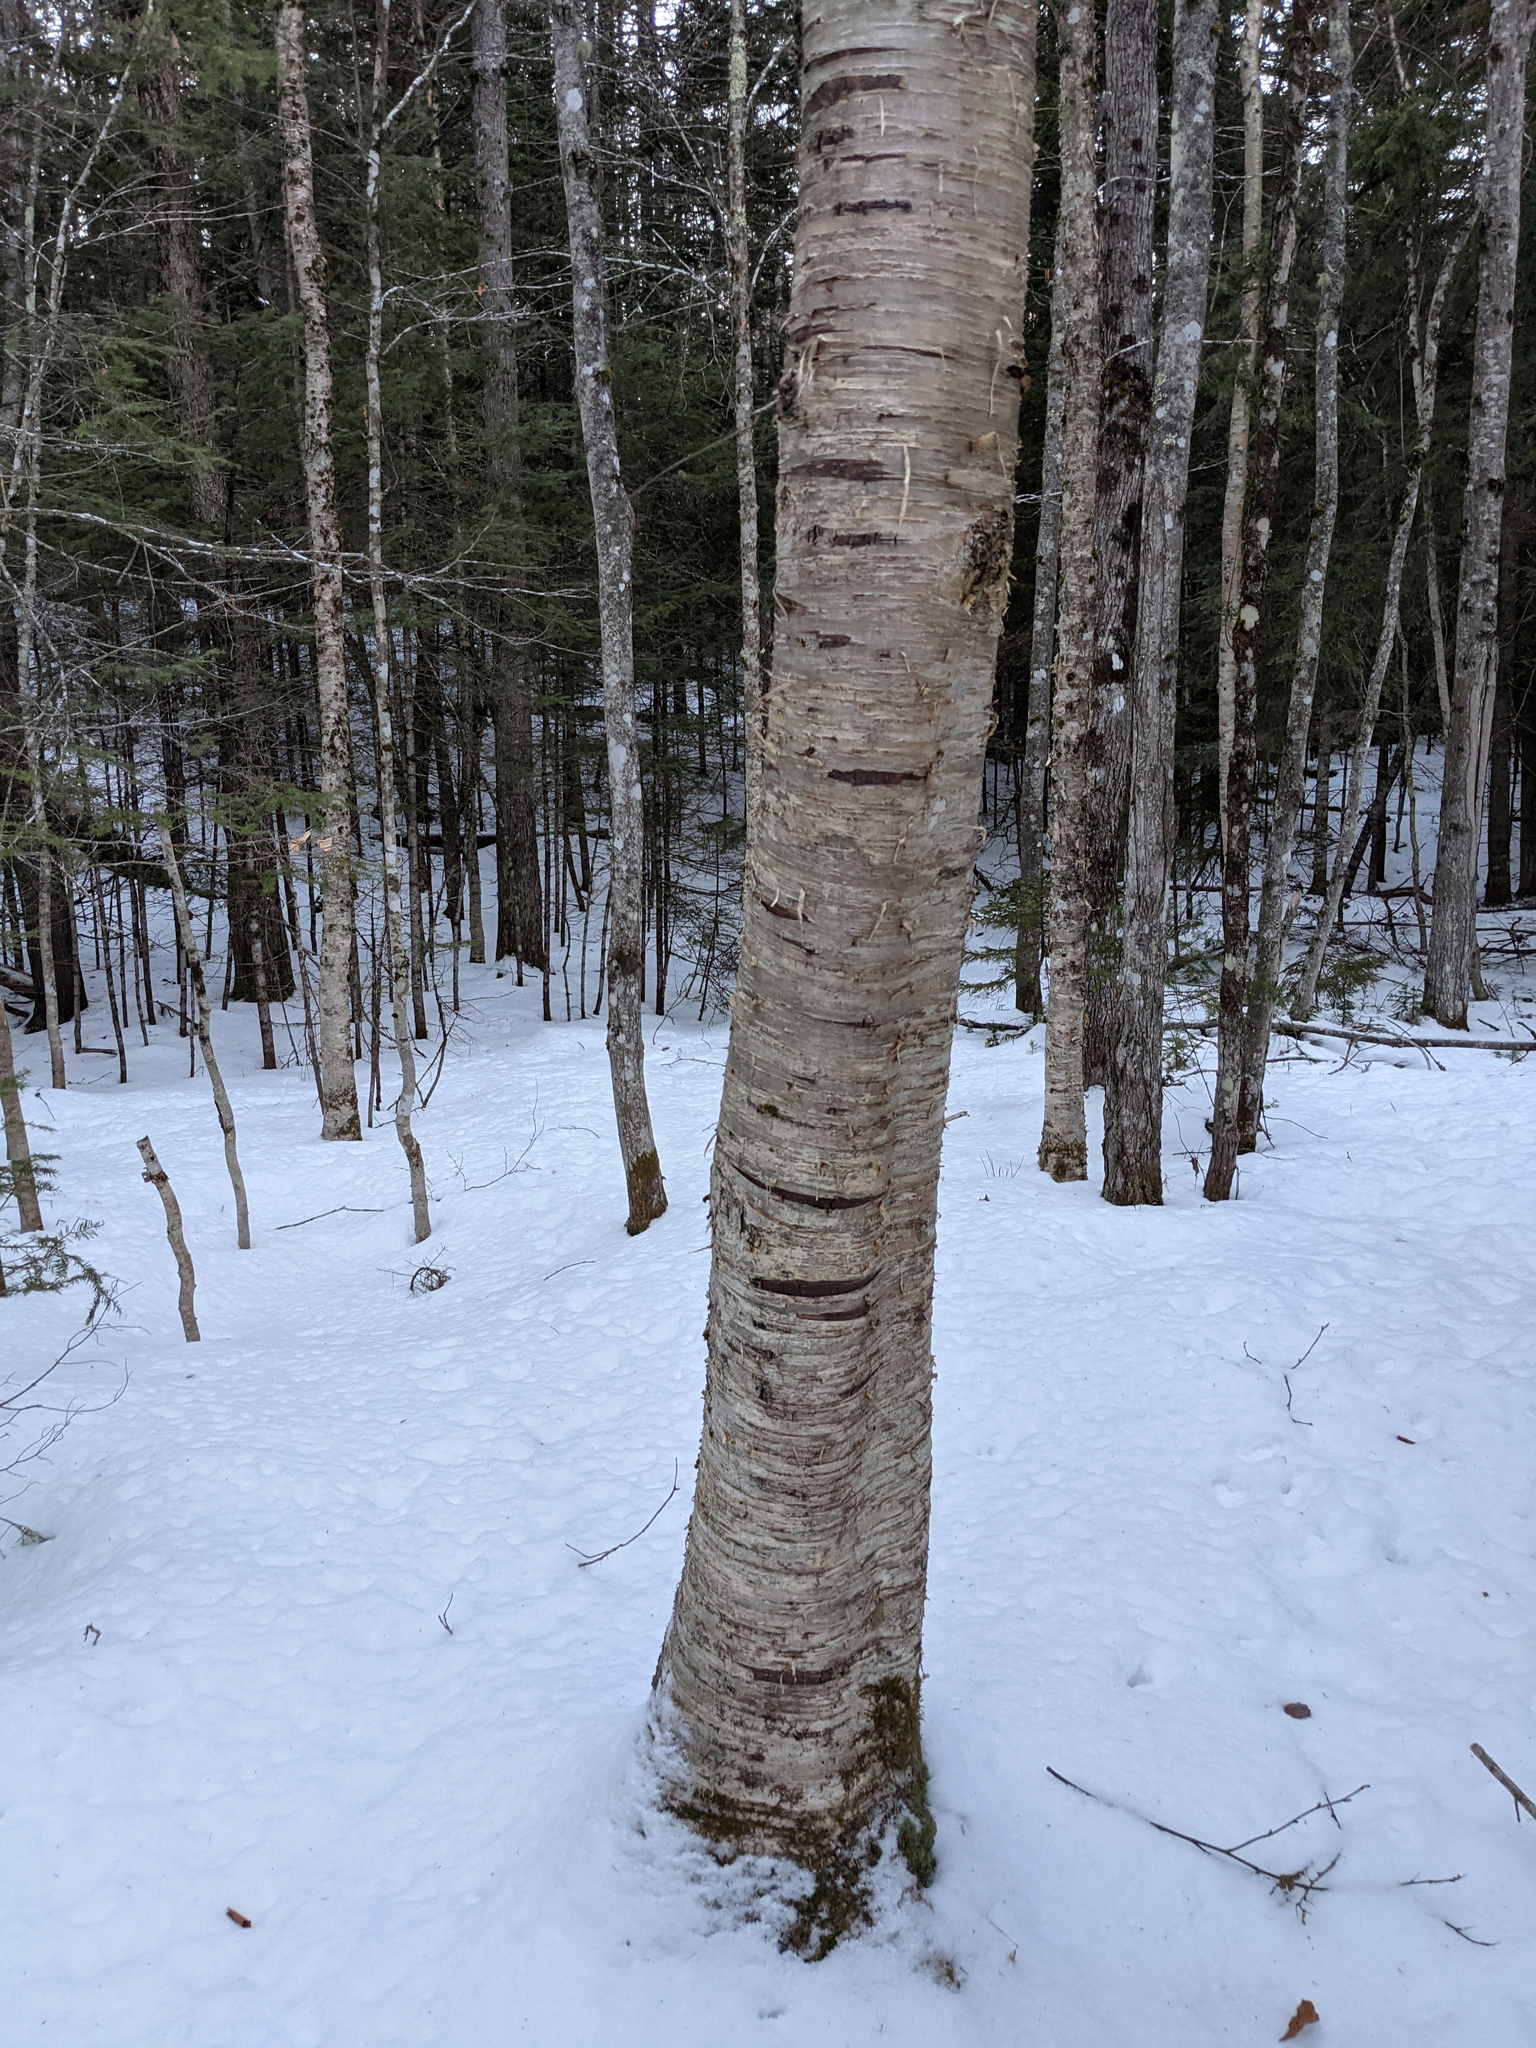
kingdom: Plantae
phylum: Tracheophyta
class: Magnoliopsida
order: Fagales
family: Betulaceae
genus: Betula
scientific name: Betula alleghaniensis
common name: Yellow birch
